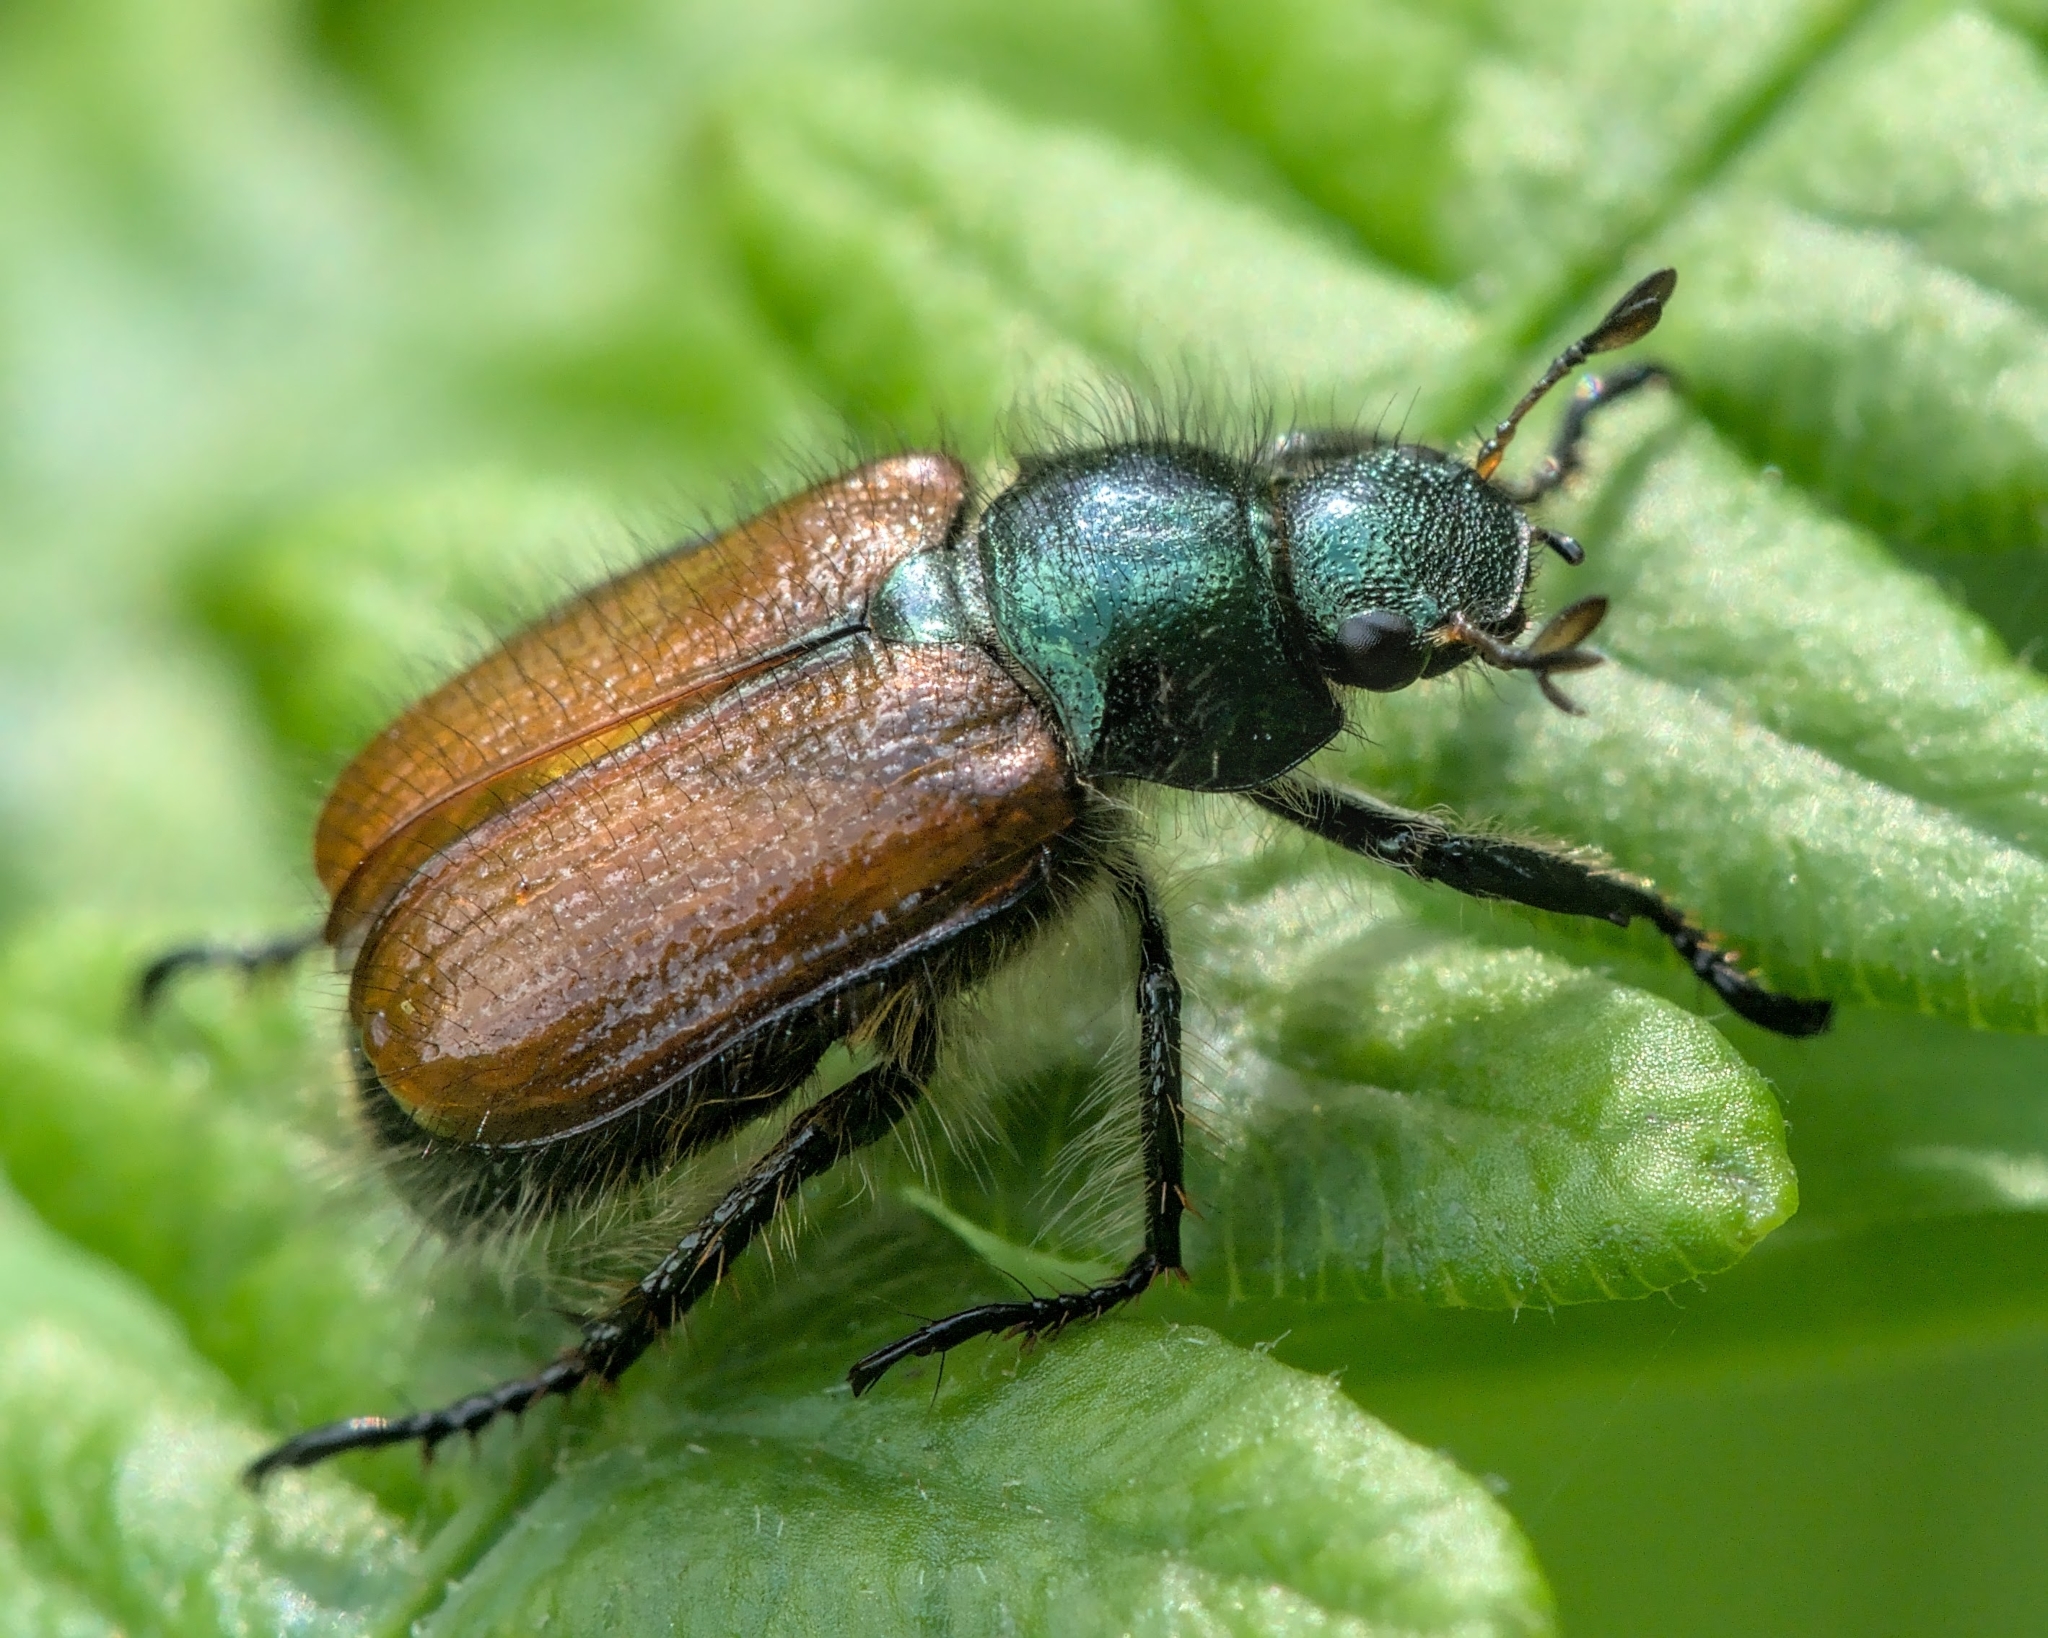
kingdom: Animalia
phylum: Arthropoda
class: Insecta
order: Coleoptera
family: Scarabaeidae
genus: Phyllopertha
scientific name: Phyllopertha horticola
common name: Garden chafer
